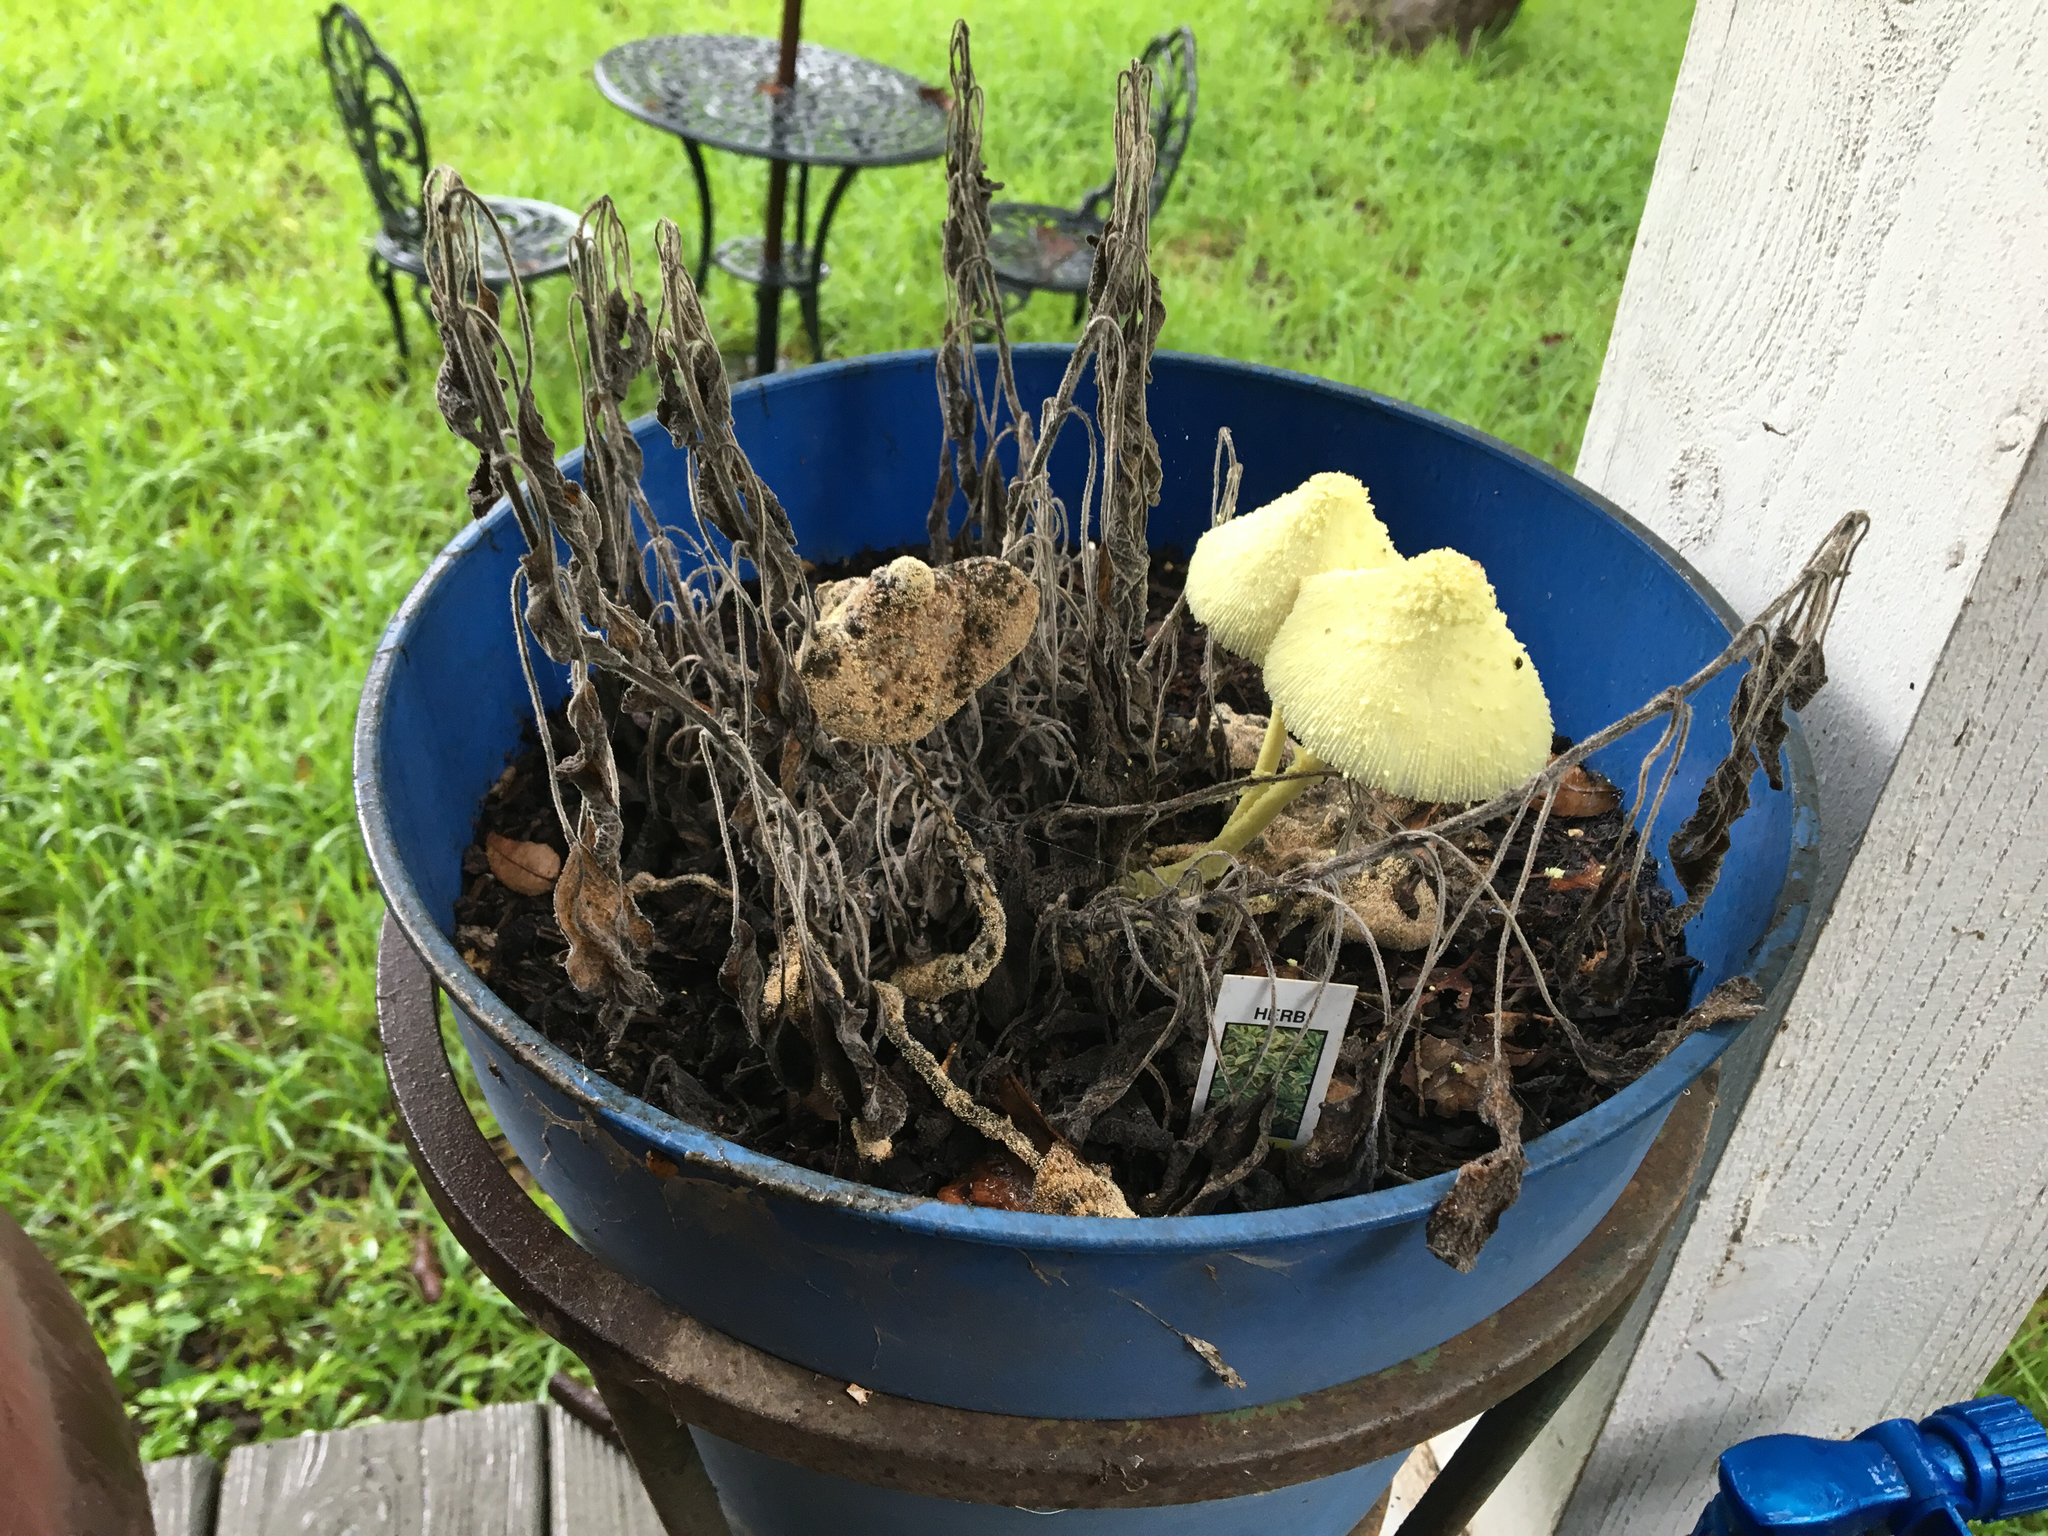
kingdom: Fungi
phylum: Basidiomycota
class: Agaricomycetes
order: Agaricales
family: Agaricaceae
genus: Leucocoprinus
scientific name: Leucocoprinus birnbaumii
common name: Plantpot dapperling
